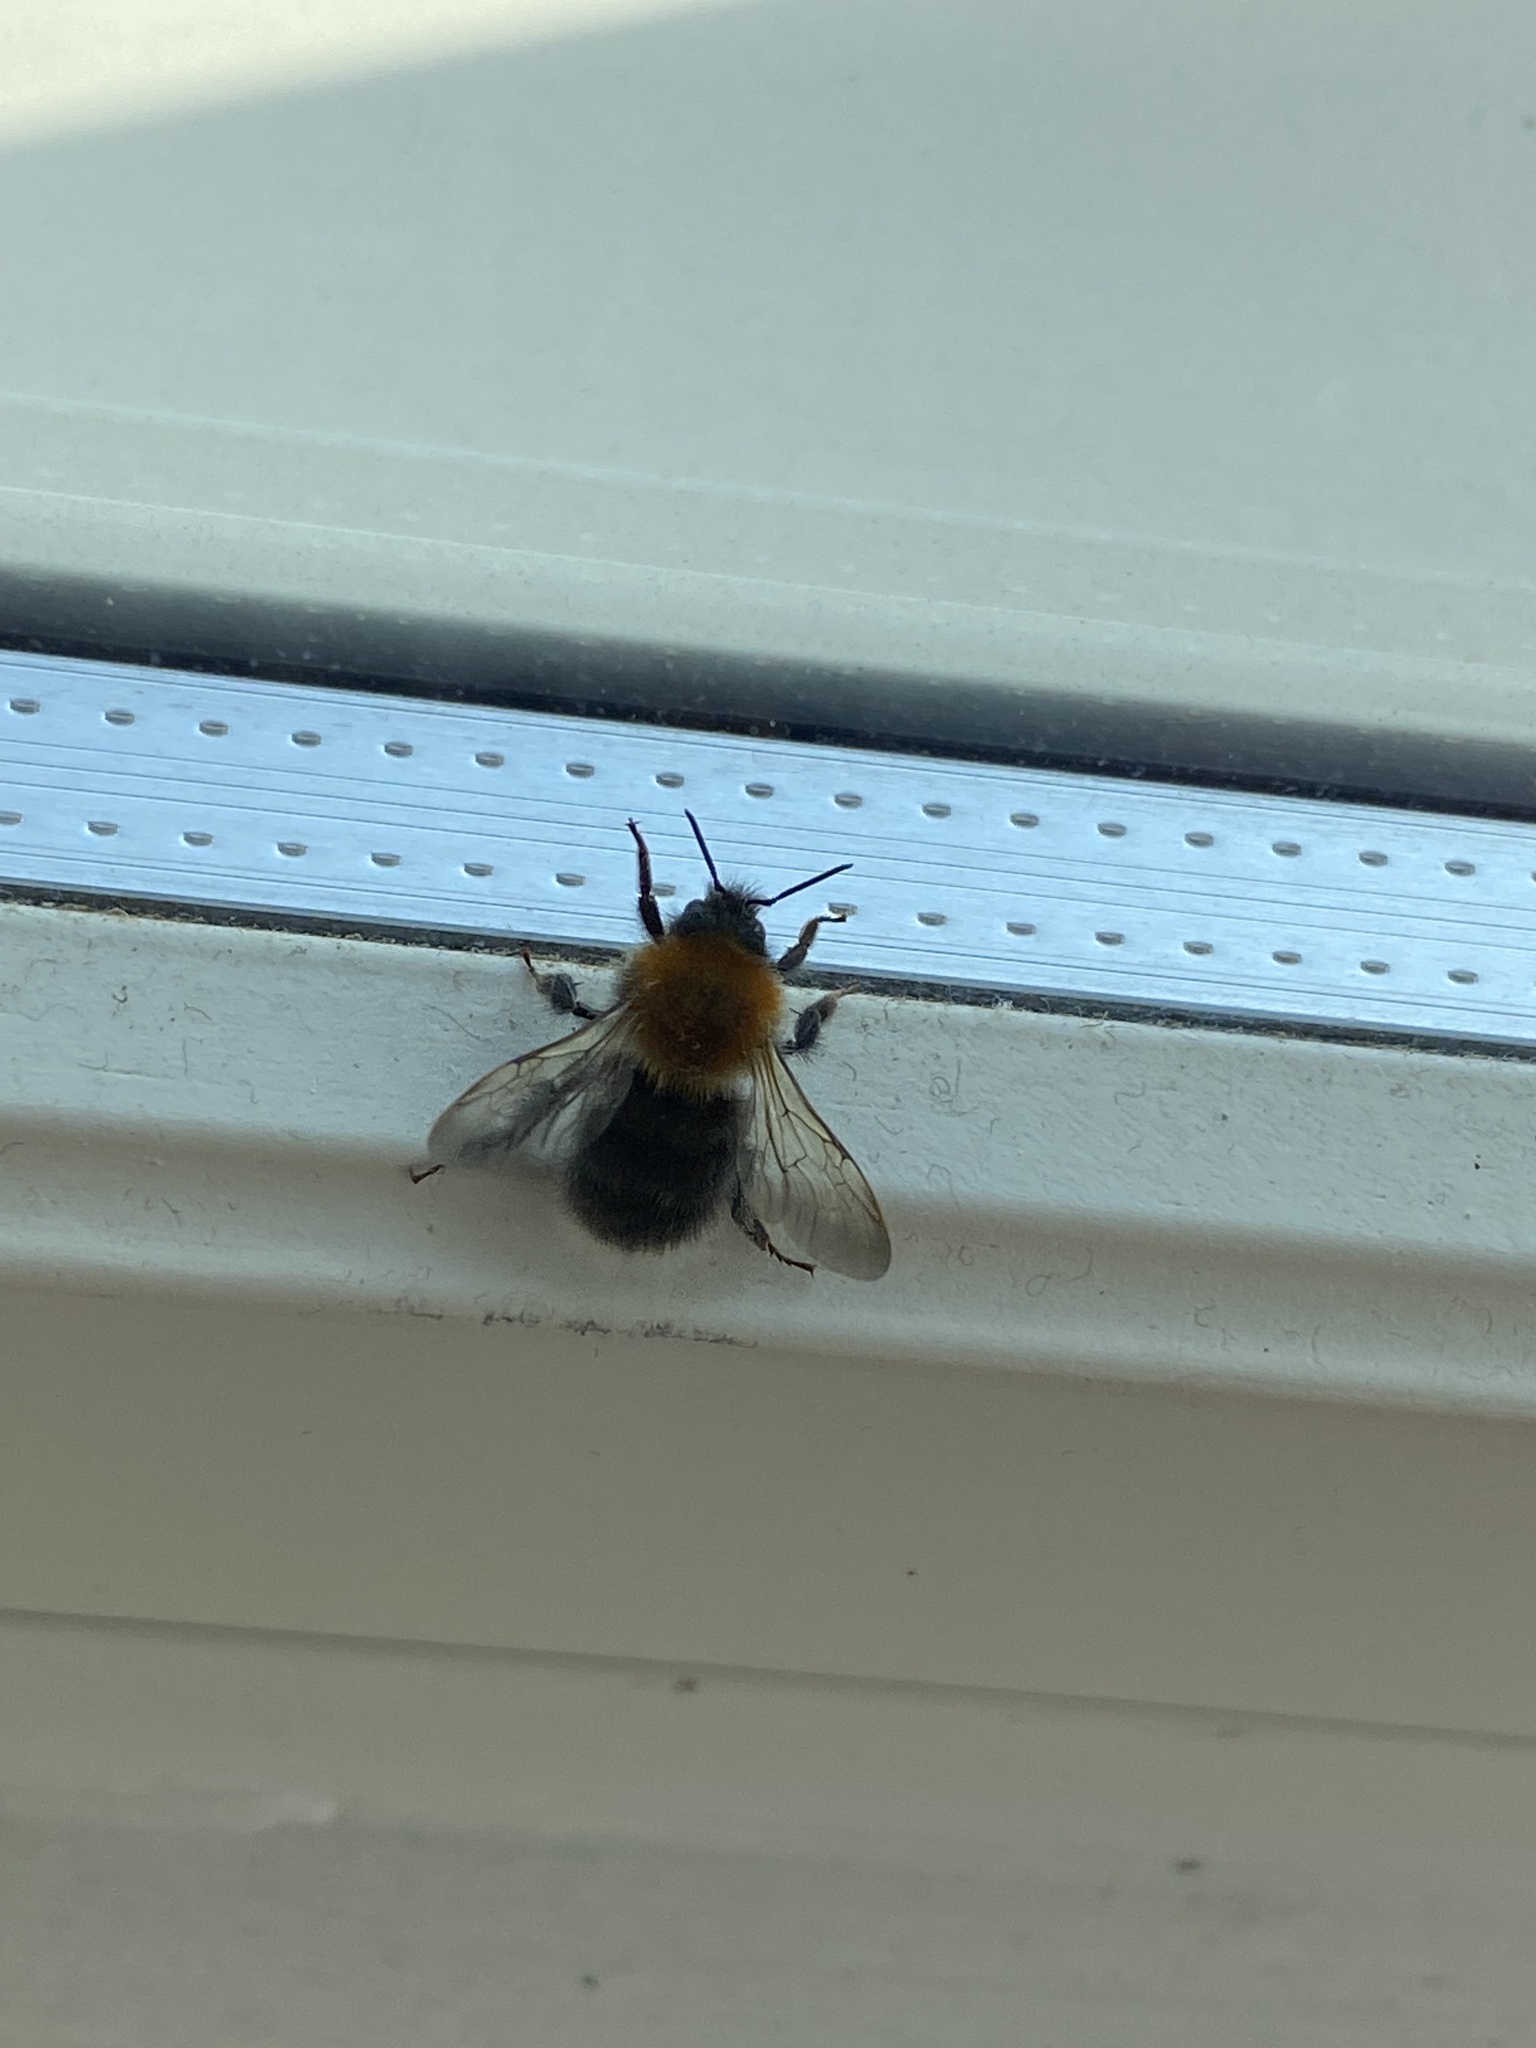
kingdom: Animalia
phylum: Arthropoda
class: Insecta
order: Hymenoptera
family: Apidae
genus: Bombus
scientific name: Bombus hypnorum
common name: New garden bumblebee
